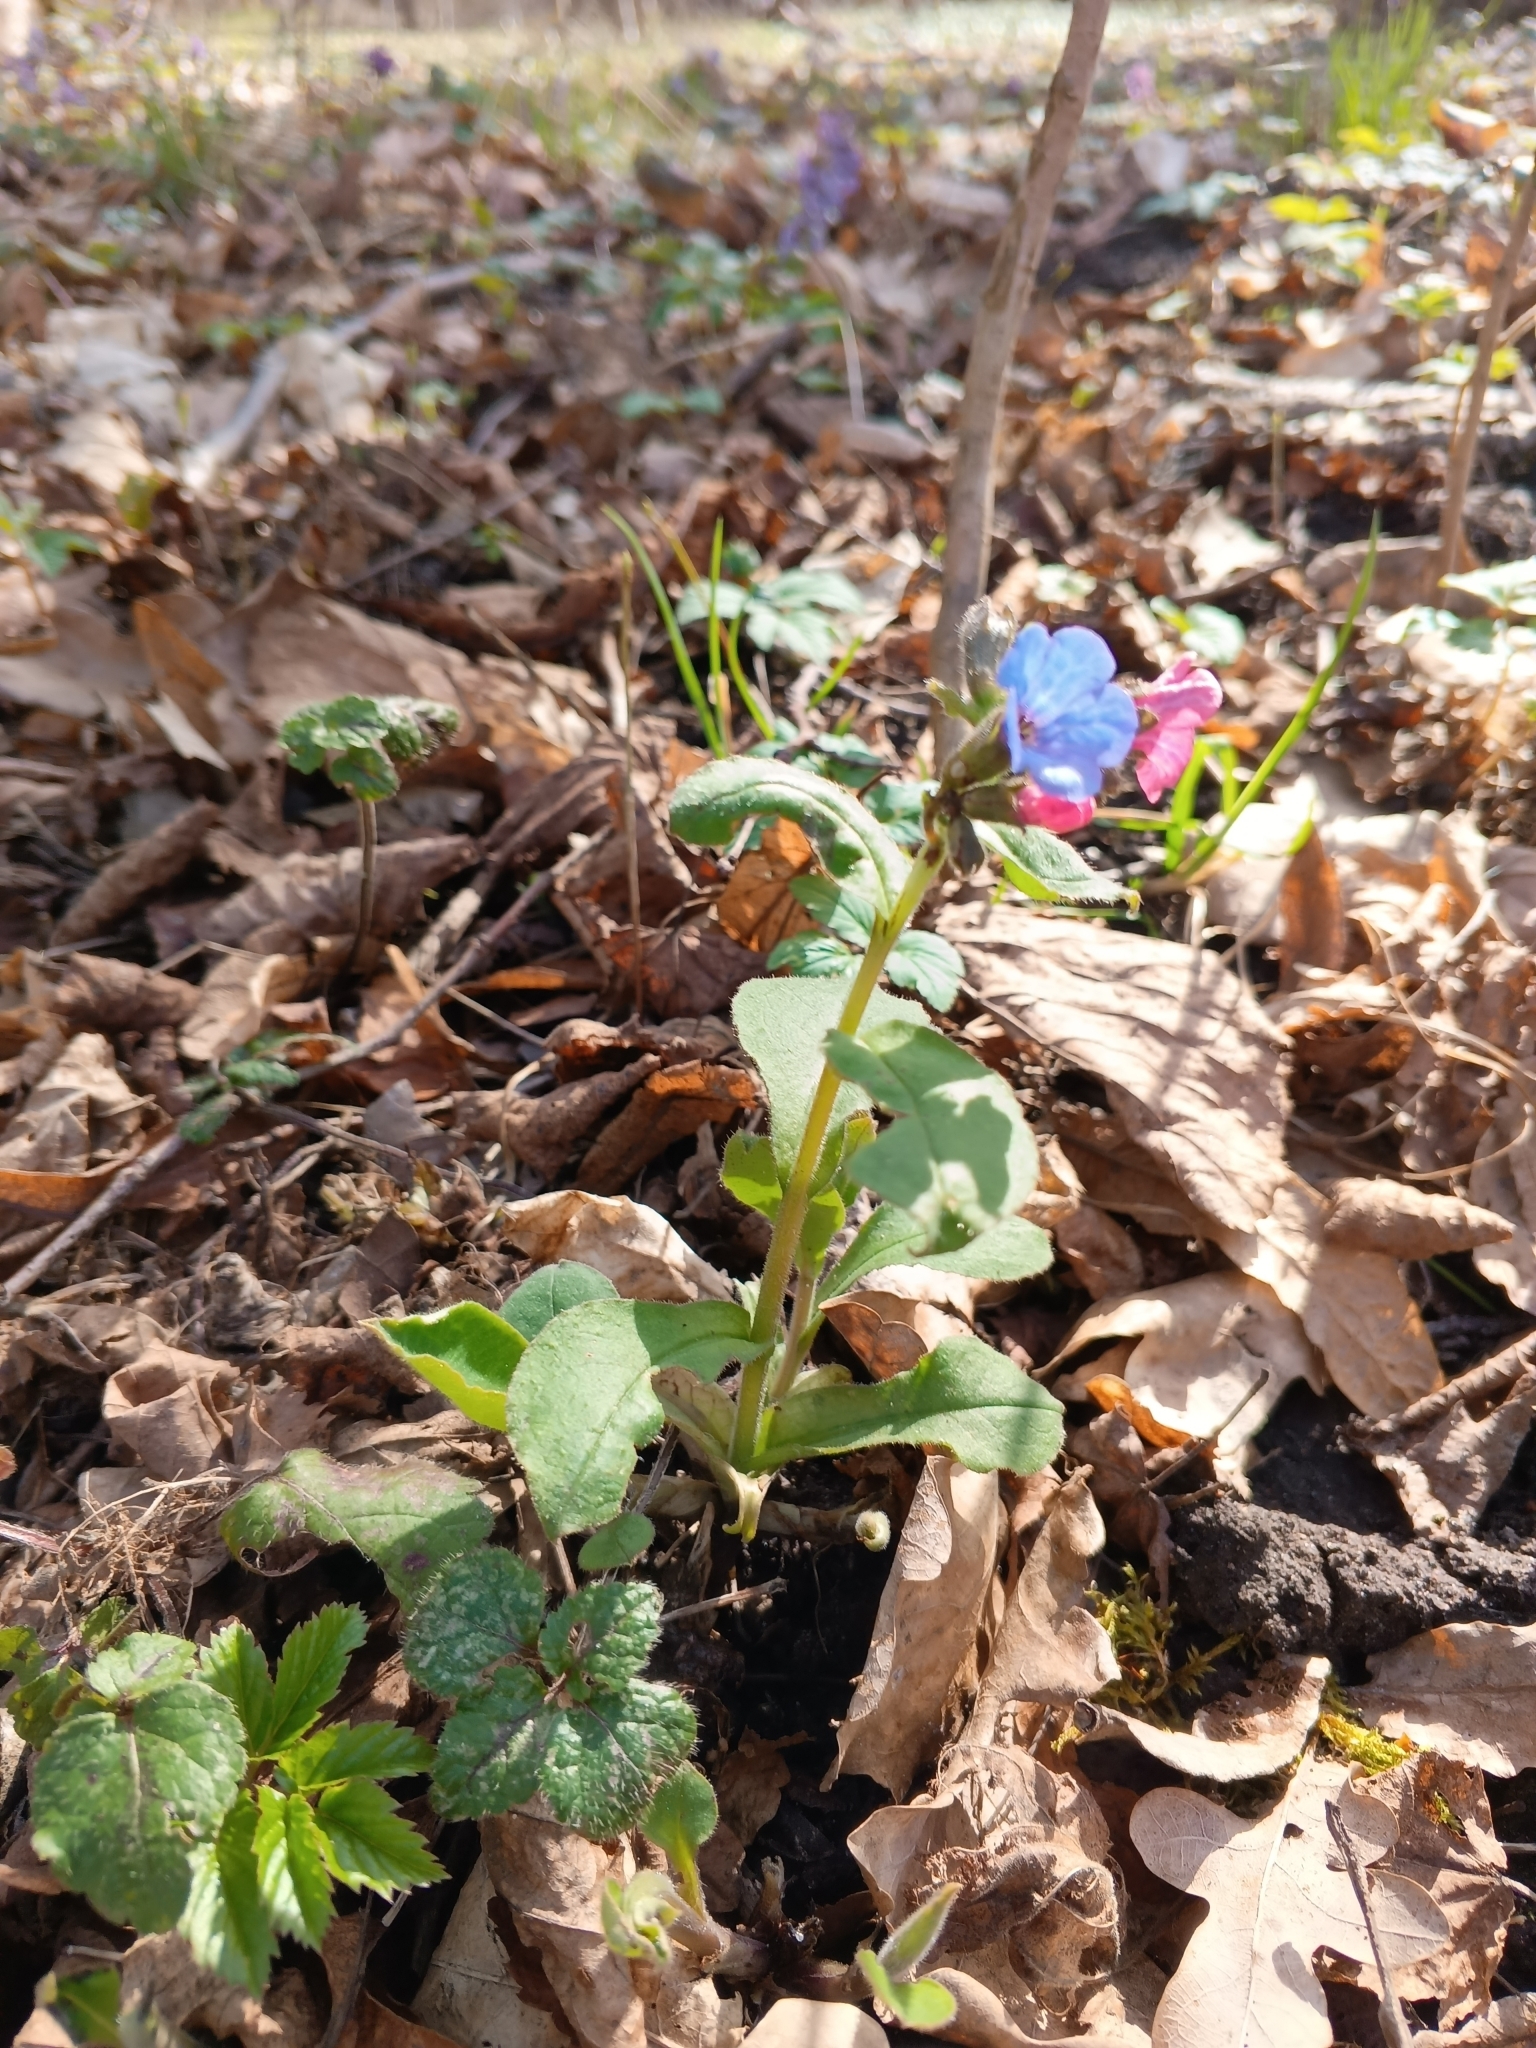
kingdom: Plantae
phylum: Tracheophyta
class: Magnoliopsida
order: Boraginales
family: Boraginaceae
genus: Pulmonaria
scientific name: Pulmonaria obscura
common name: Suffolk lungwort
